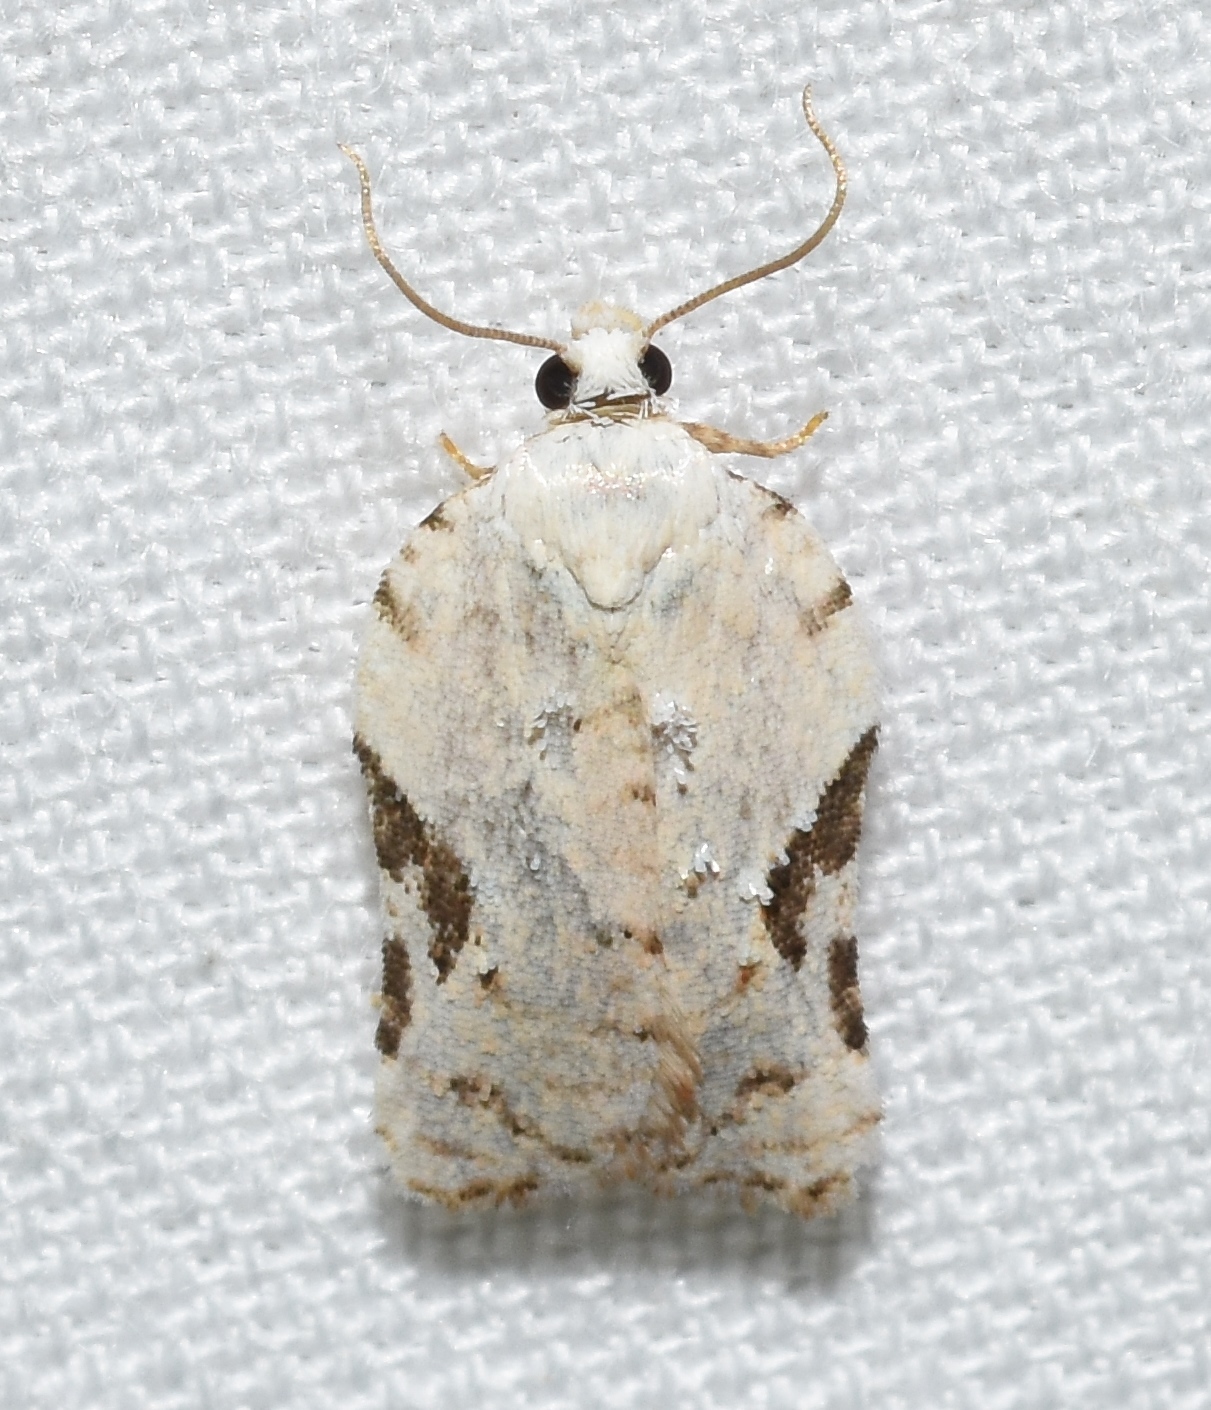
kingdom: Animalia
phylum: Arthropoda
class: Insecta
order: Lepidoptera
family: Tortricidae
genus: Acleris
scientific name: Acleris subnivana
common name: Bent-winged acleris moth
